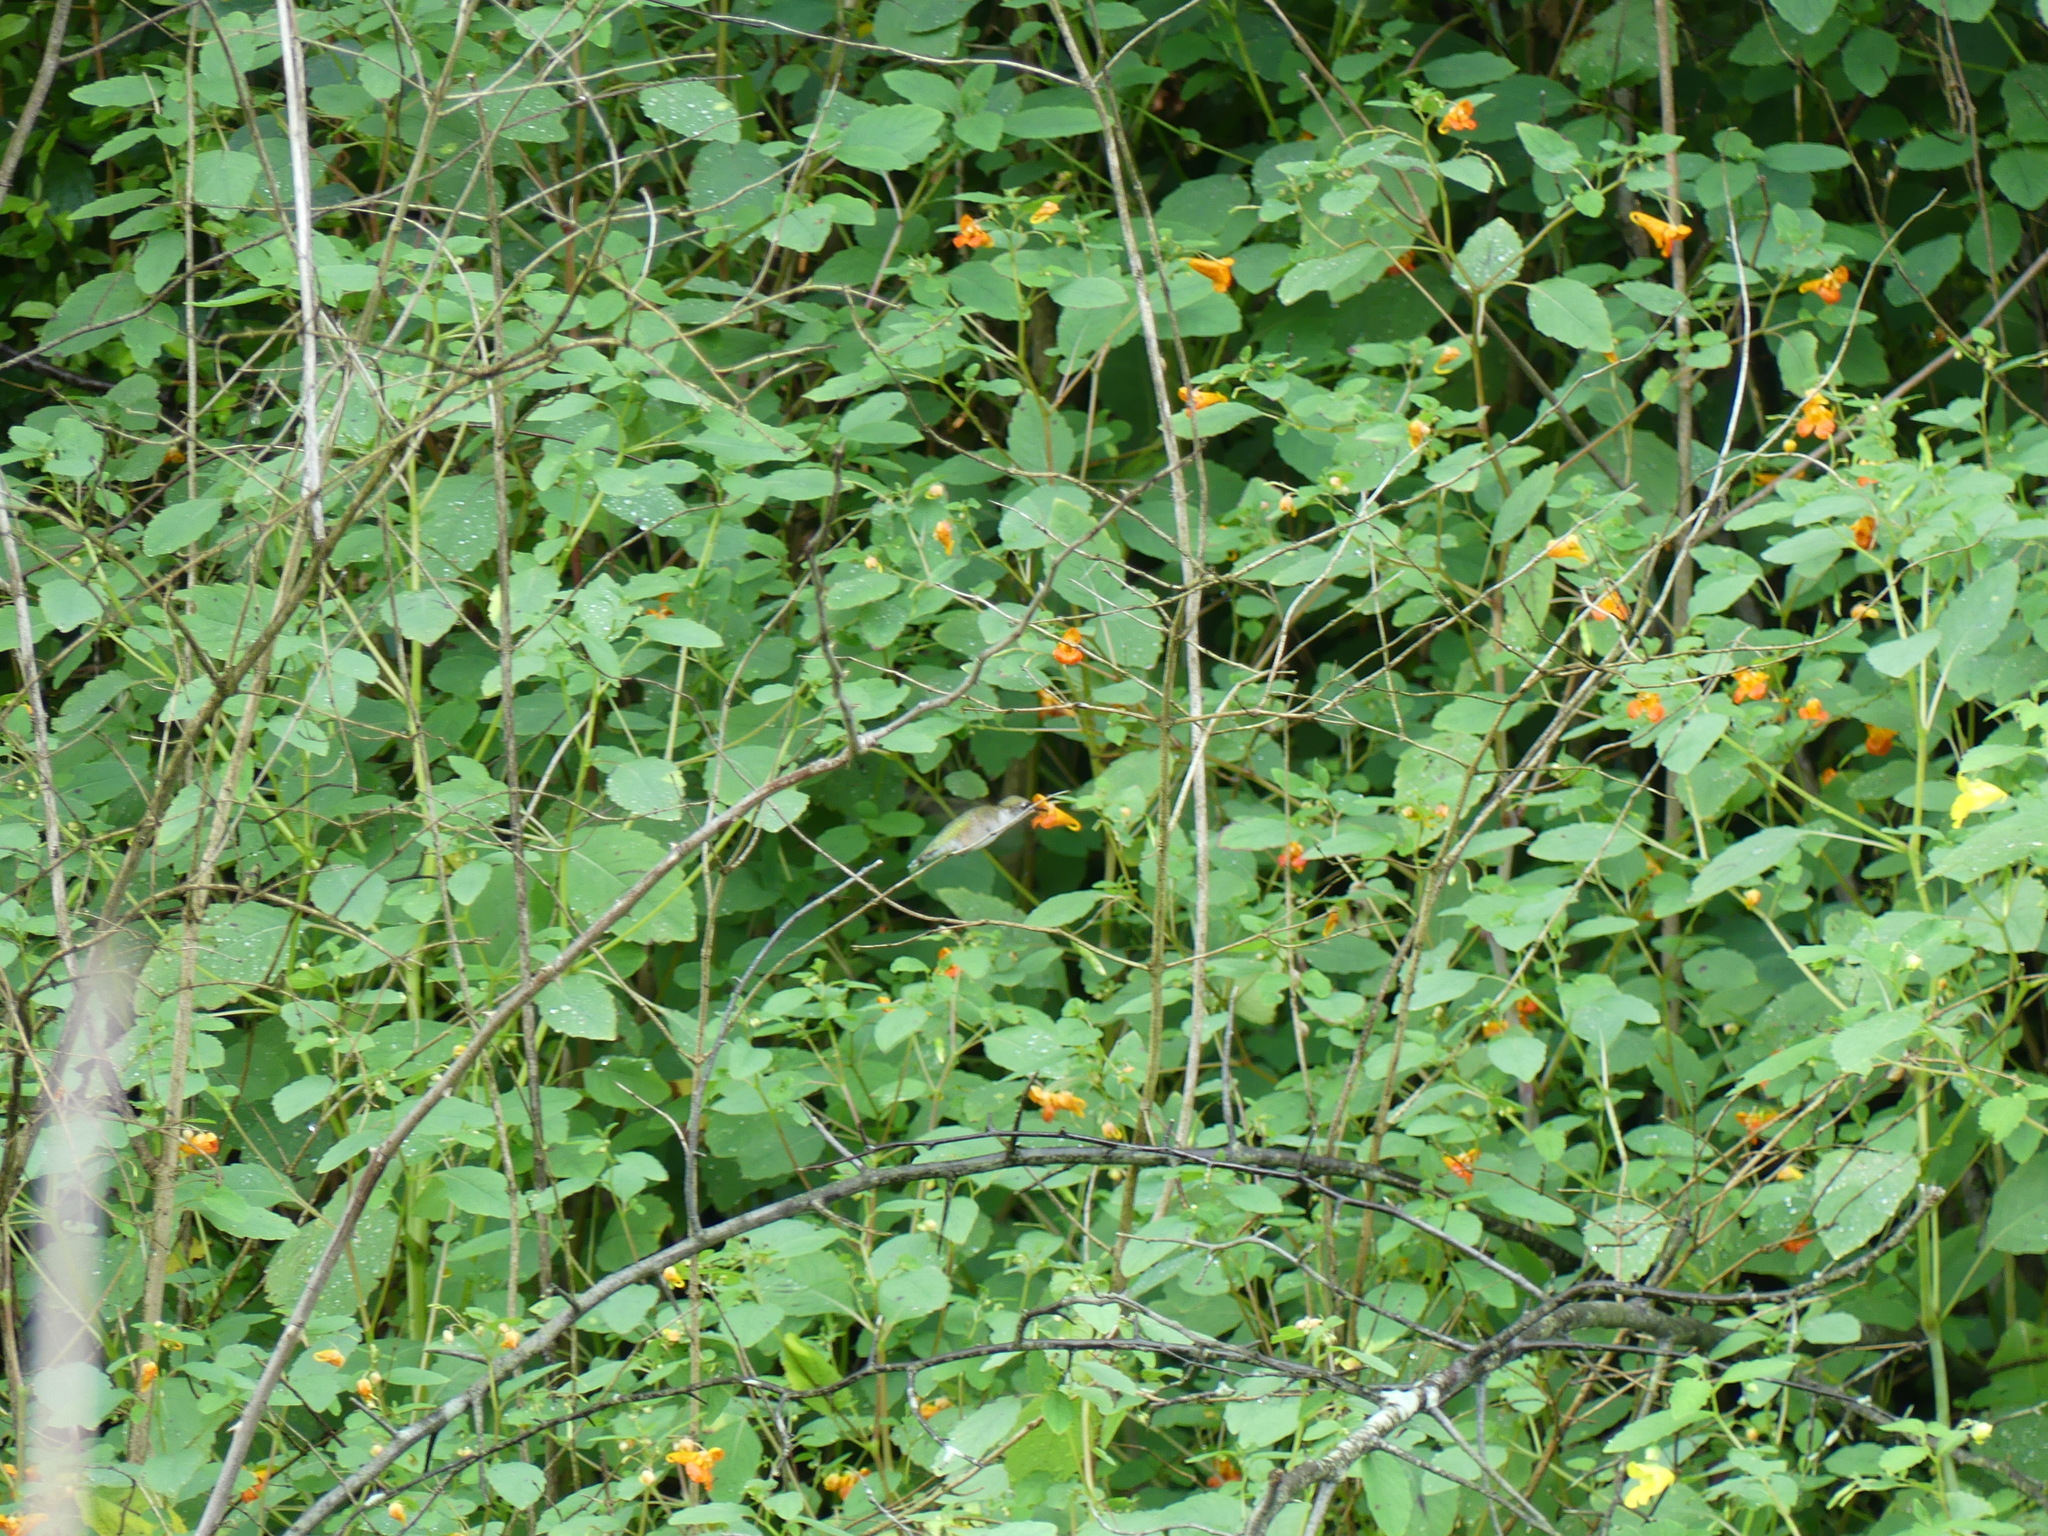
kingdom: Plantae
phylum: Tracheophyta
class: Magnoliopsida
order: Ericales
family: Balsaminaceae
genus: Impatiens
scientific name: Impatiens capensis
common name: Orange balsam
